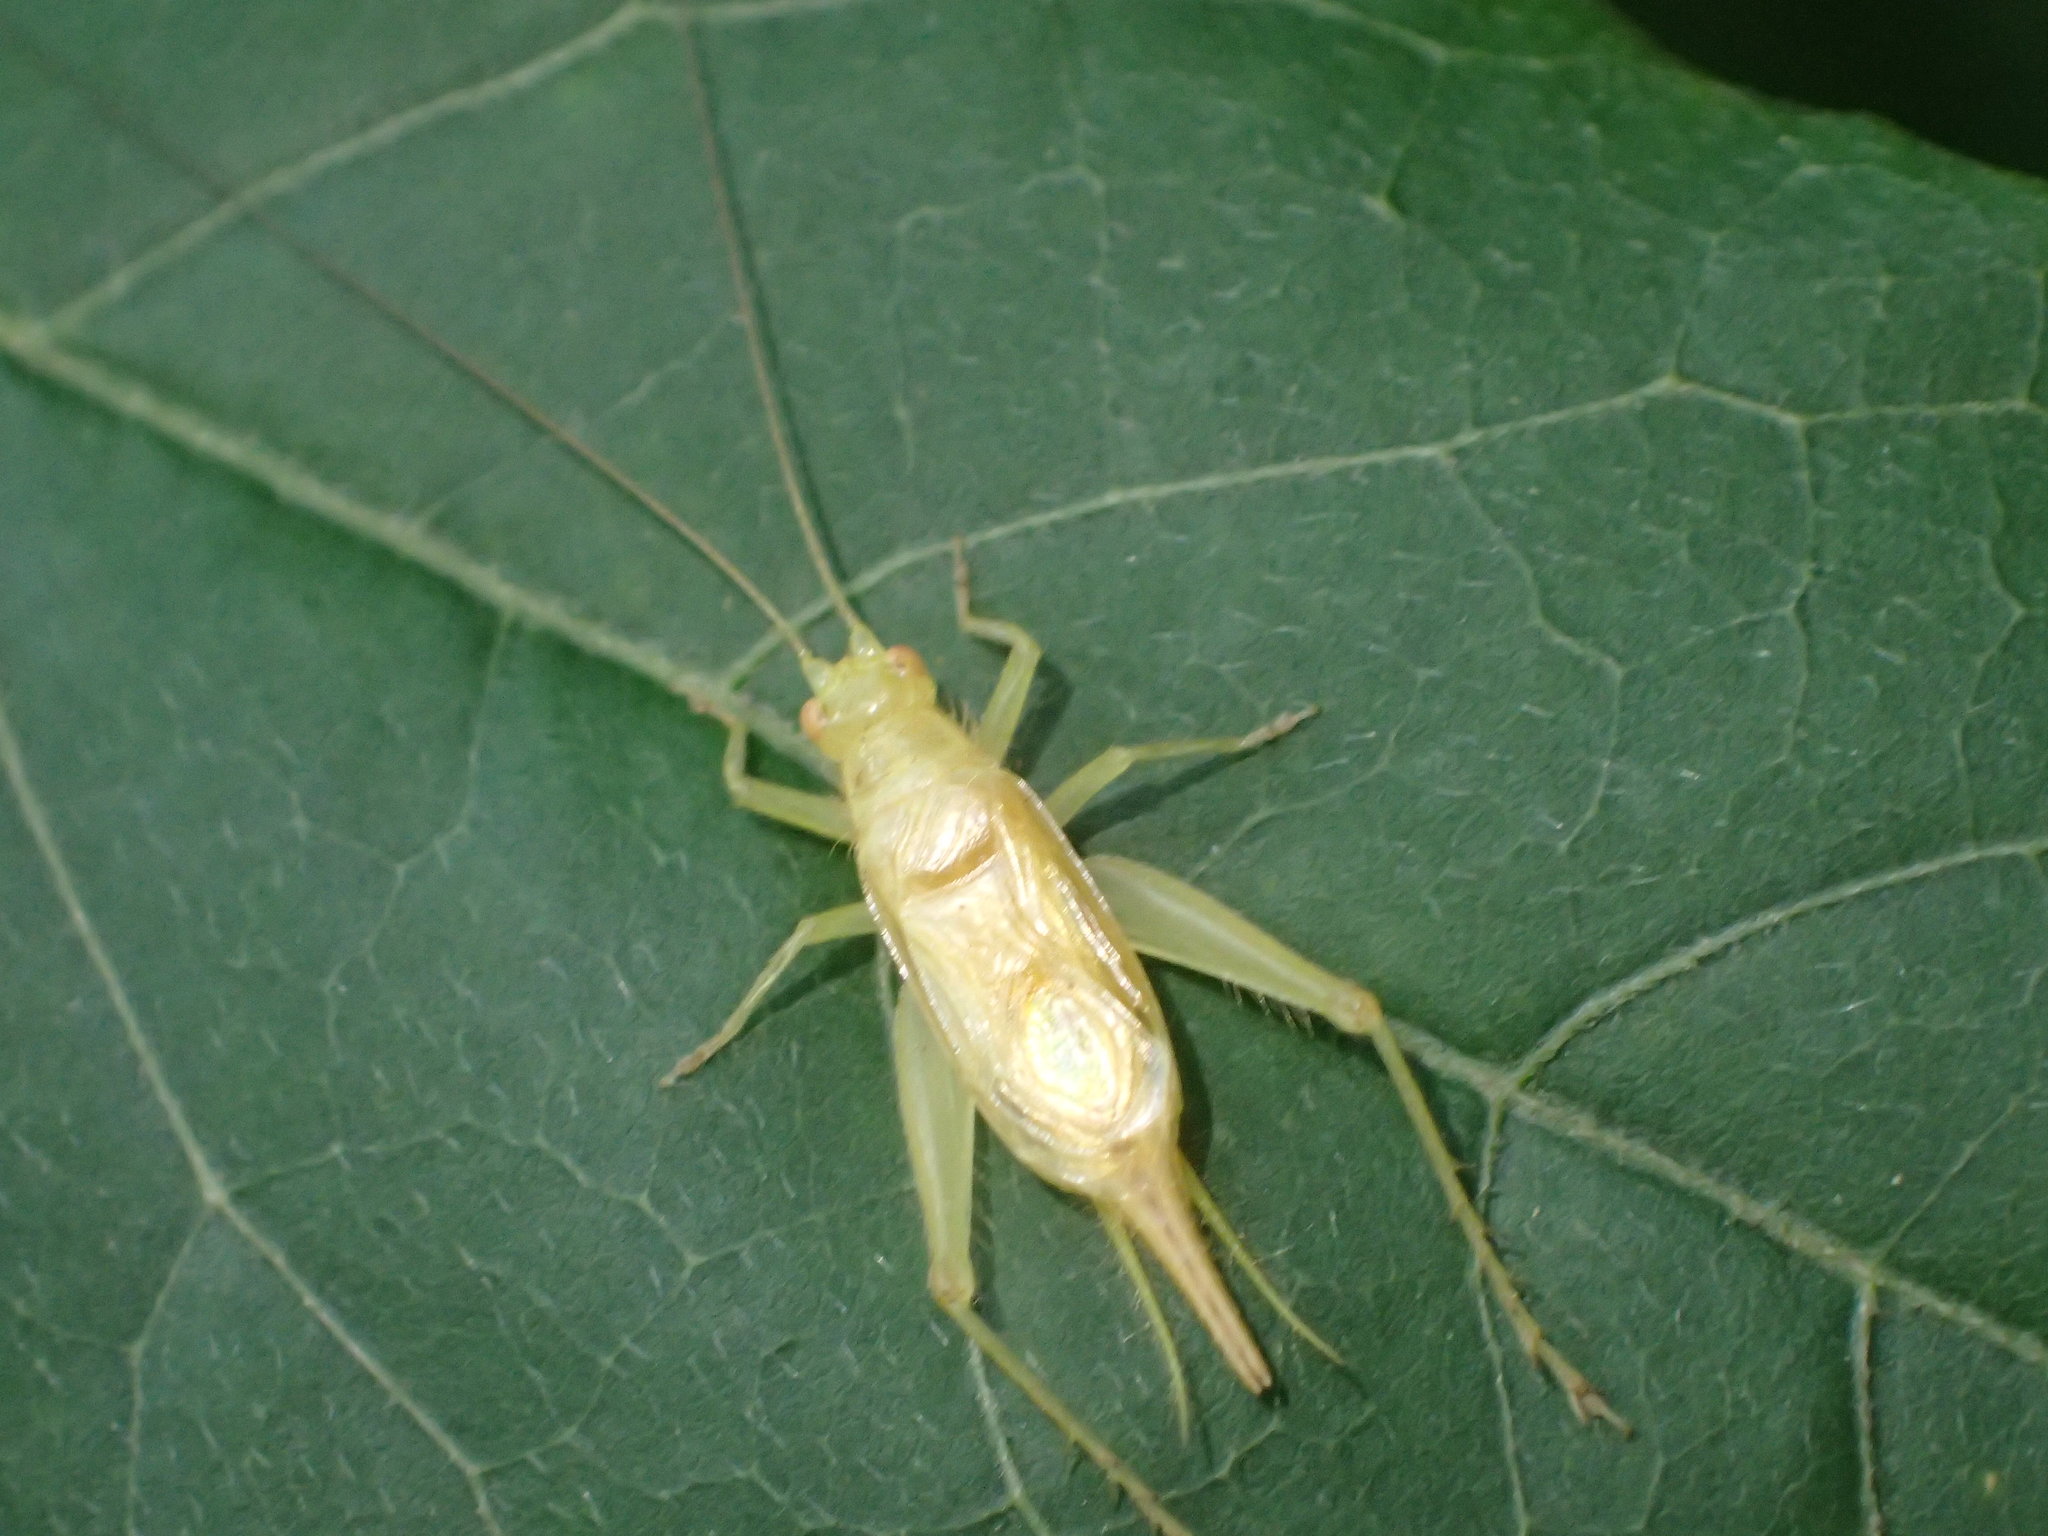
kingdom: Animalia
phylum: Arthropoda
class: Insecta
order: Orthoptera
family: Trigonidiidae
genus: Cyrtoxipha
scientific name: Cyrtoxipha columbiana
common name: Columbian trig
